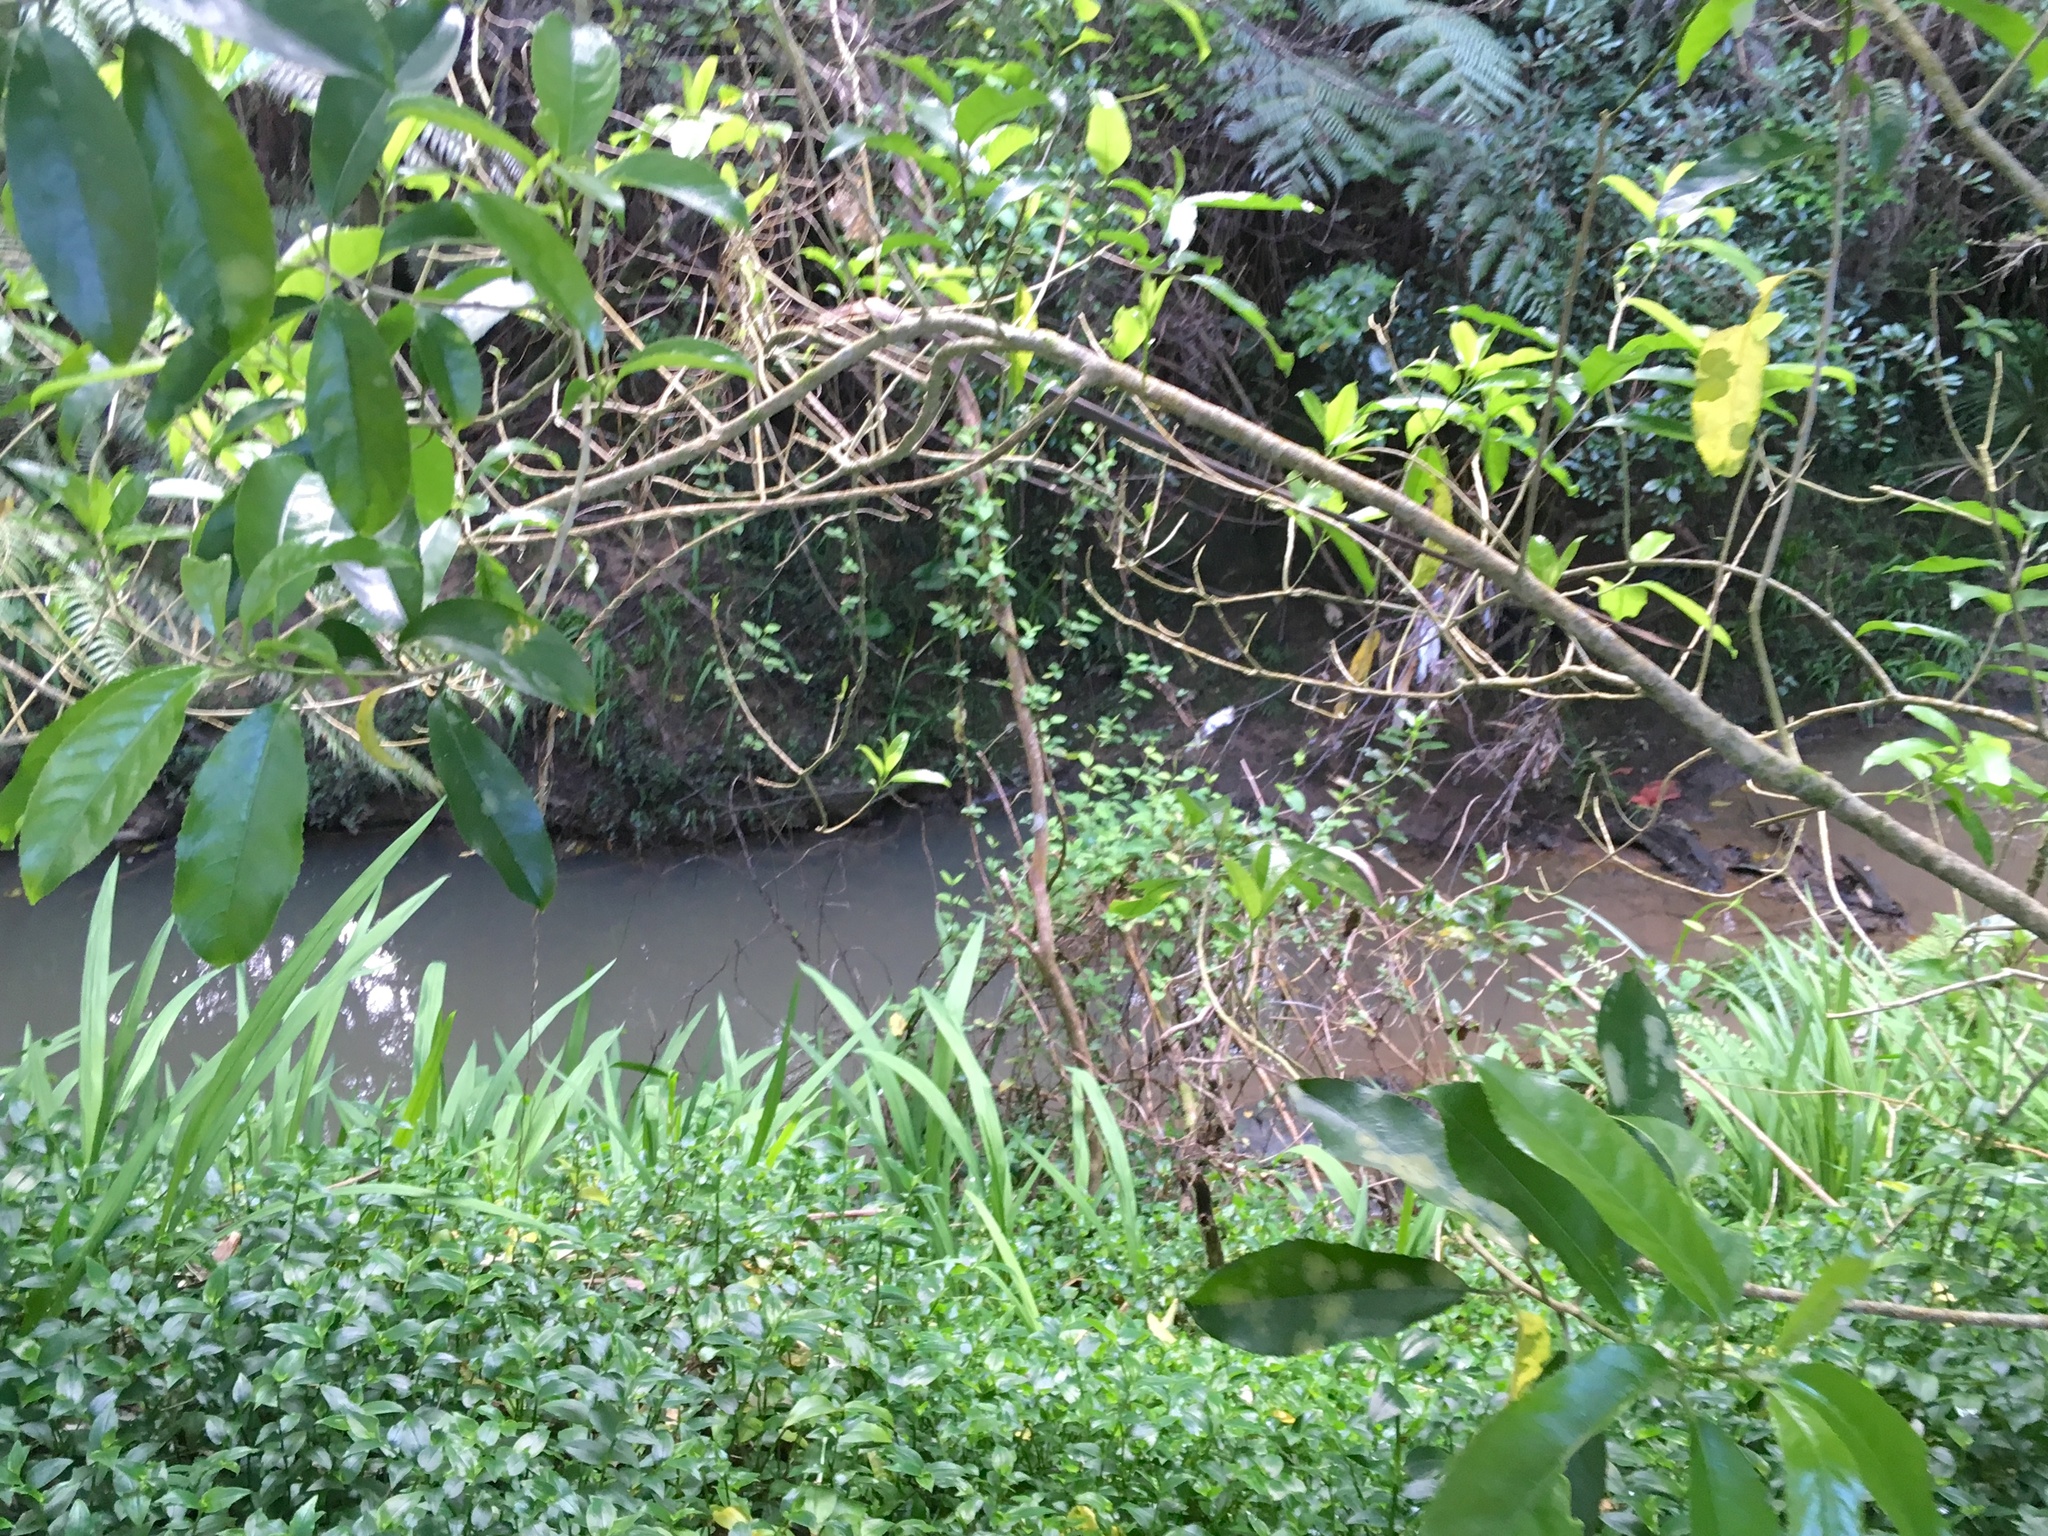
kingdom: Plantae
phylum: Tracheophyta
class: Magnoliopsida
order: Dipsacales
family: Caprifoliaceae
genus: Lonicera
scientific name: Lonicera japonica
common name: Japanese honeysuckle
